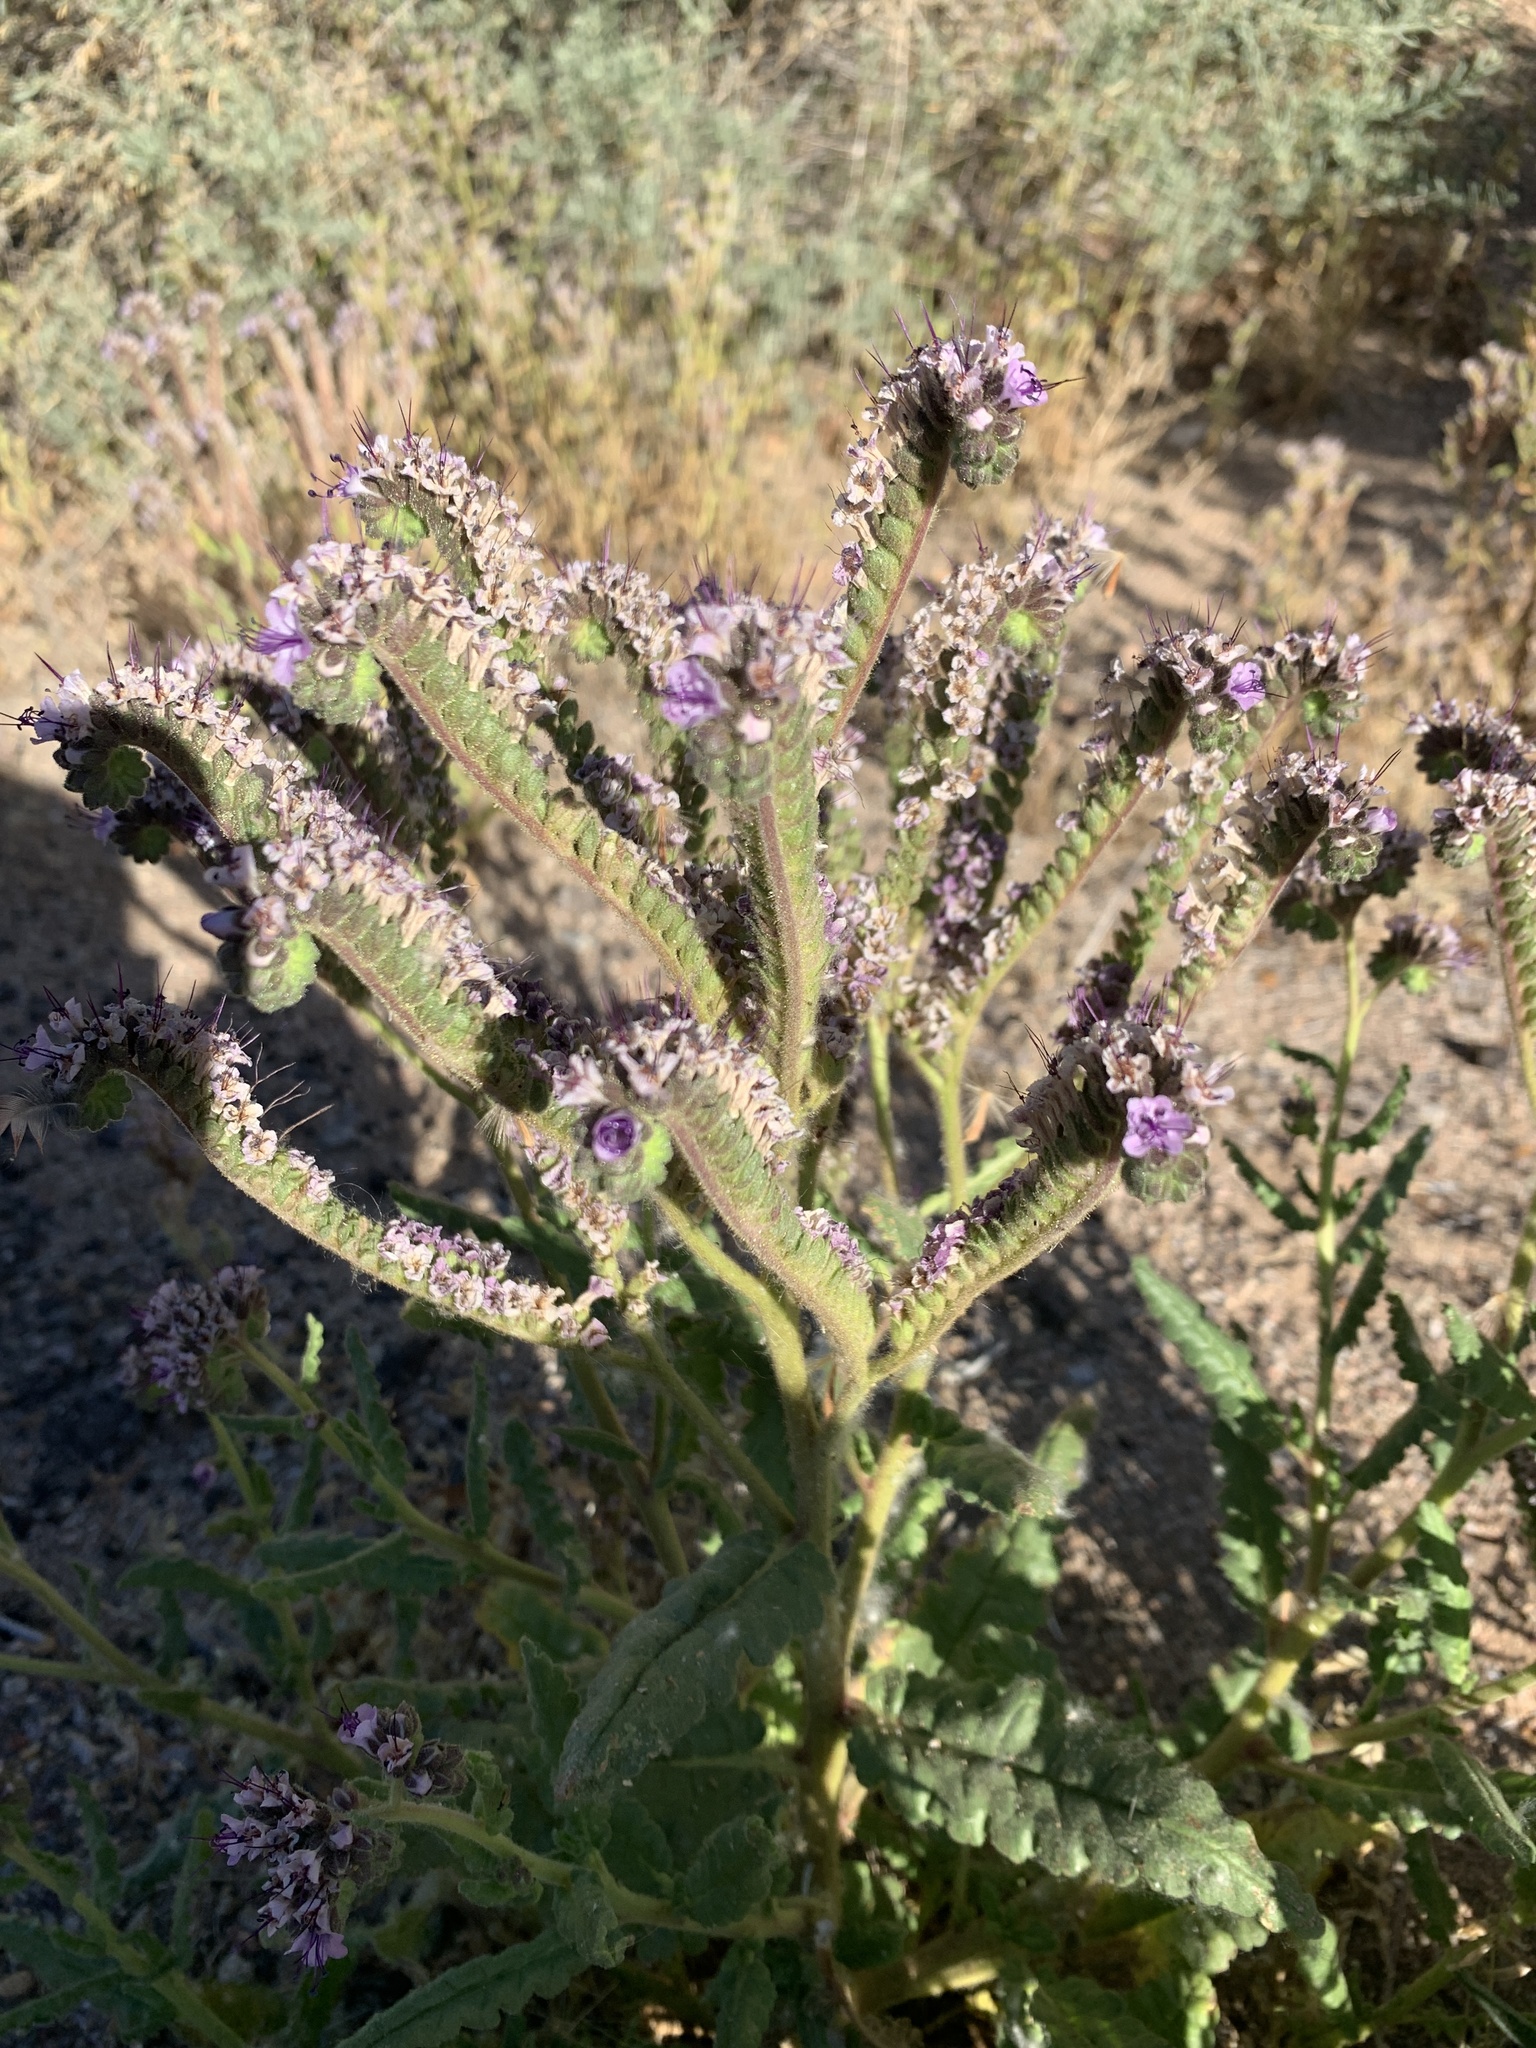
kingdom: Plantae
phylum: Tracheophyta
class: Magnoliopsida
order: Boraginales
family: Hydrophyllaceae
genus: Phacelia
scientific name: Phacelia integrifolia
